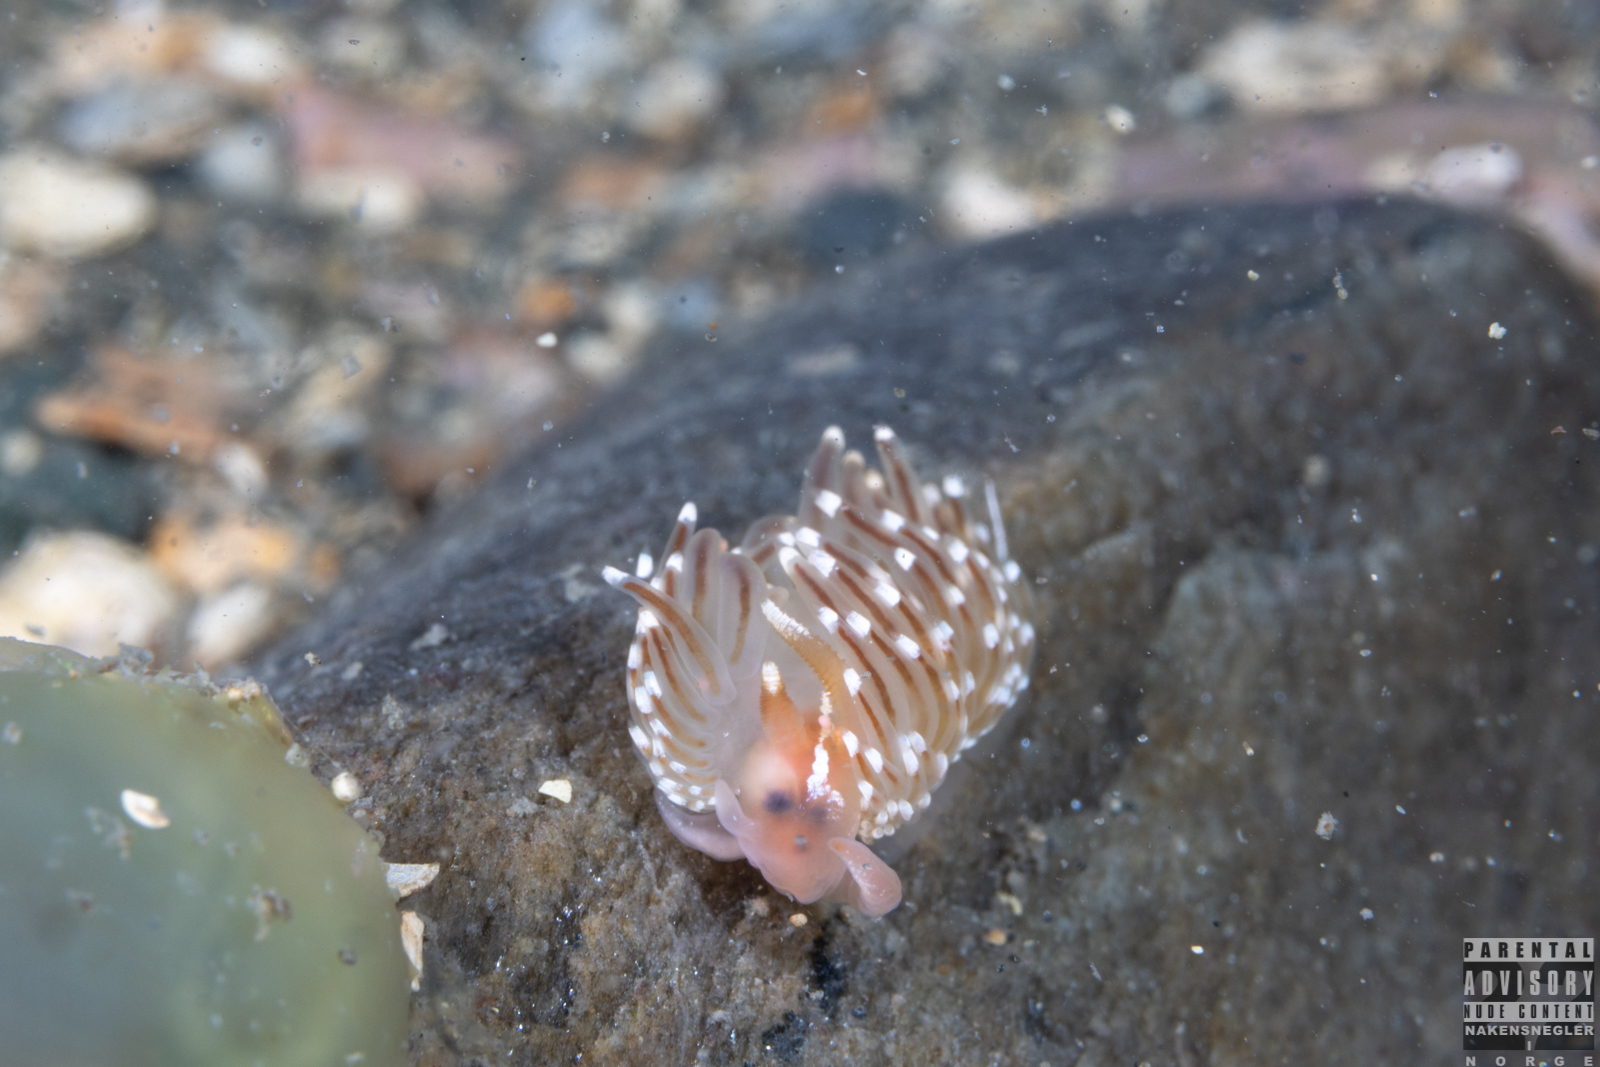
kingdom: Animalia
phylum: Mollusca
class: Gastropoda
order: Nudibranchia
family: Facelinidae
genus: Facelina
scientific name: Facelina bostoniensis
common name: Boston facelina
